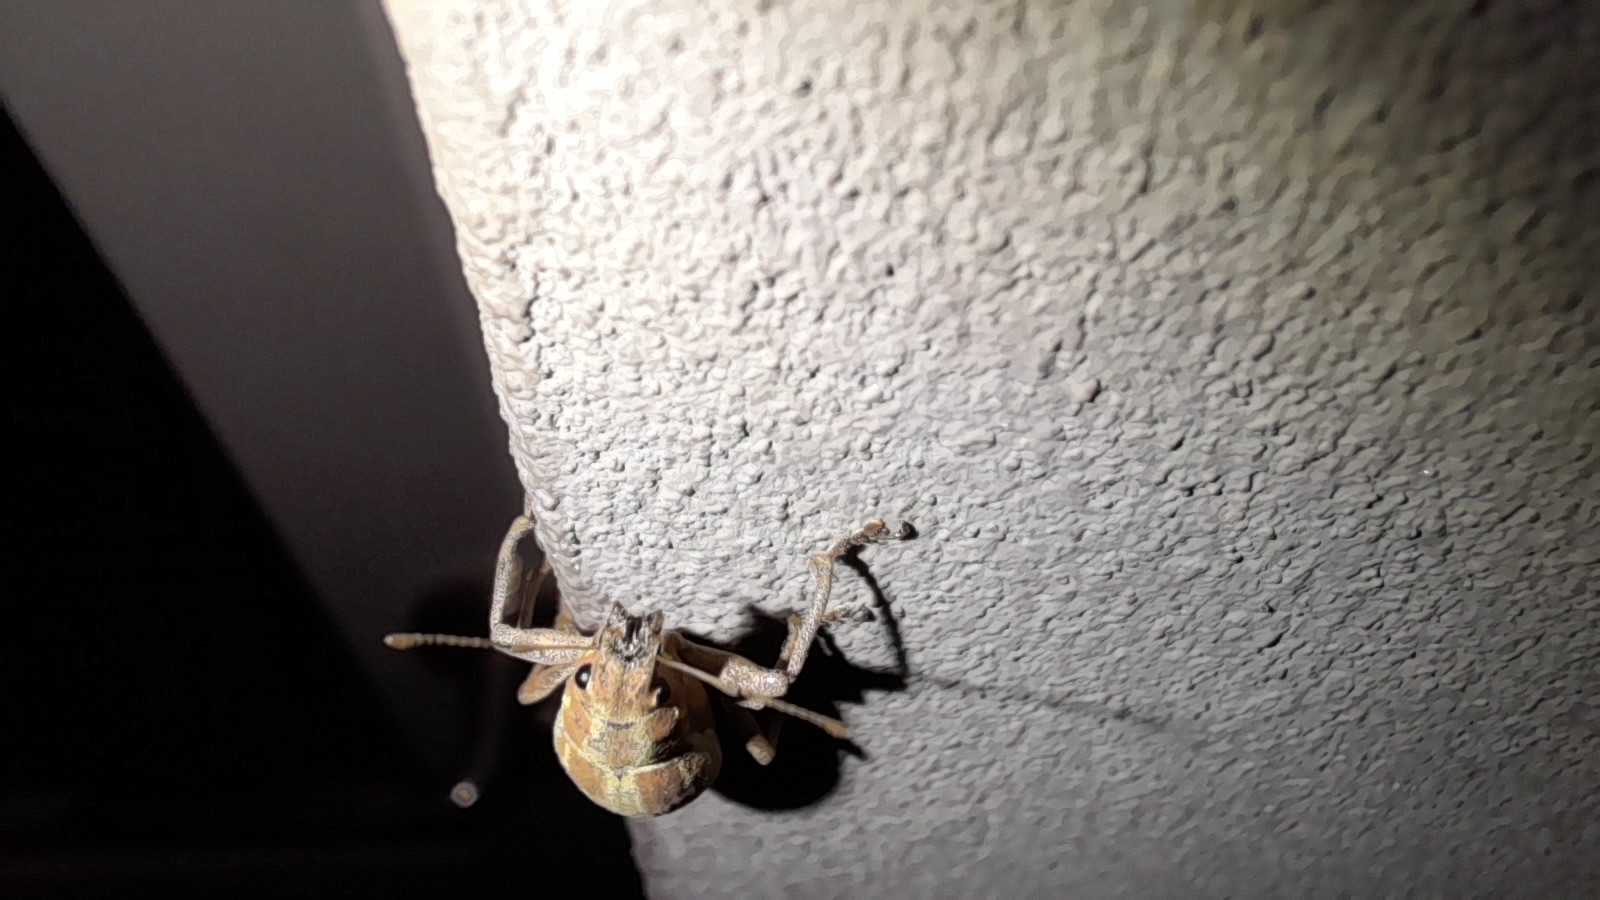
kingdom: Animalia
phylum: Arthropoda
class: Insecta
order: Coleoptera
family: Curculionidae
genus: Naupactus
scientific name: Naupactus xanthographus
